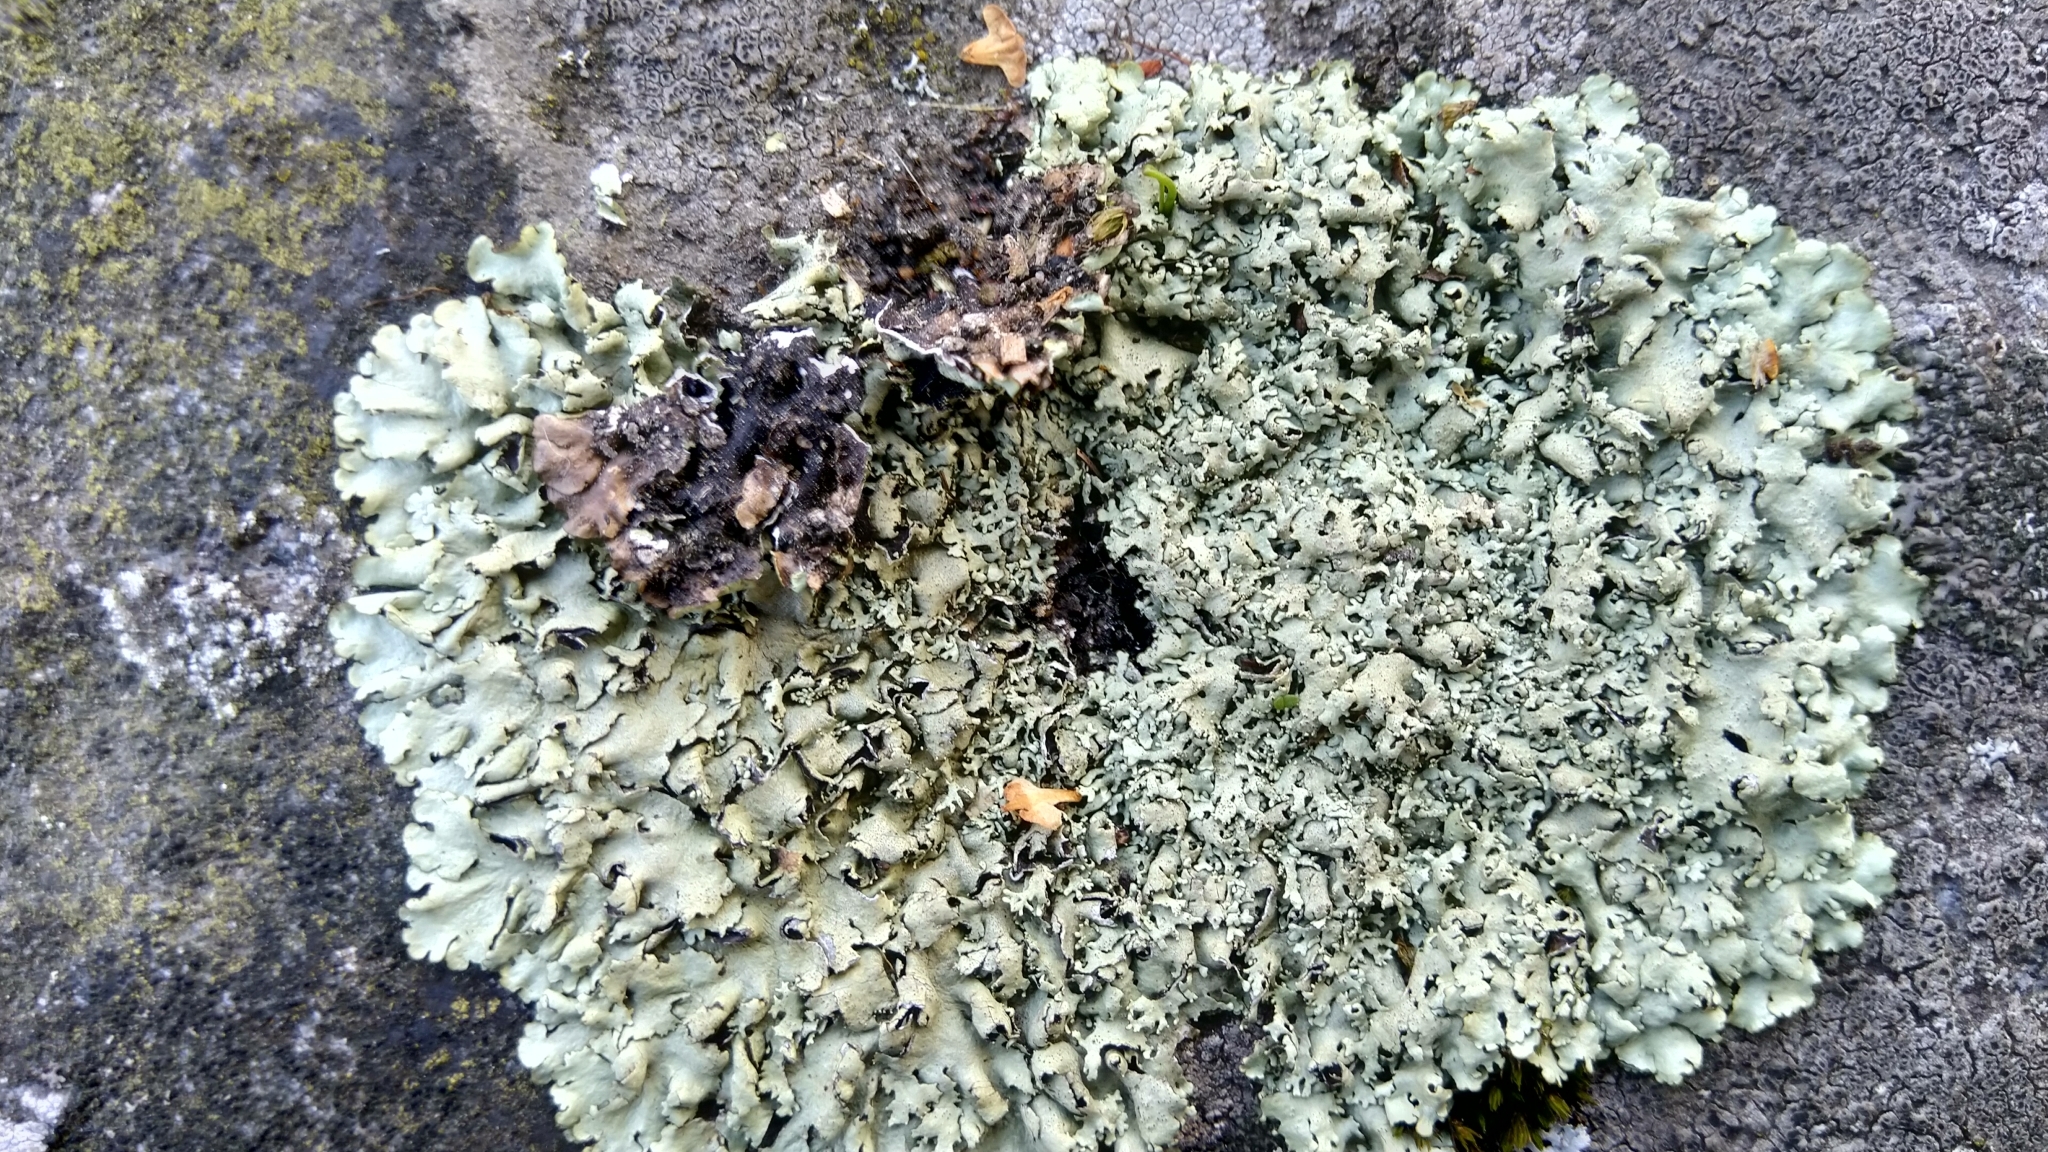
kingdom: Fungi
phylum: Ascomycota
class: Lecanoromycetes
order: Lecanorales
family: Parmeliaceae
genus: Xanthoparmelia
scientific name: Xanthoparmelia stenophylla
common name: Shingled rock shield
